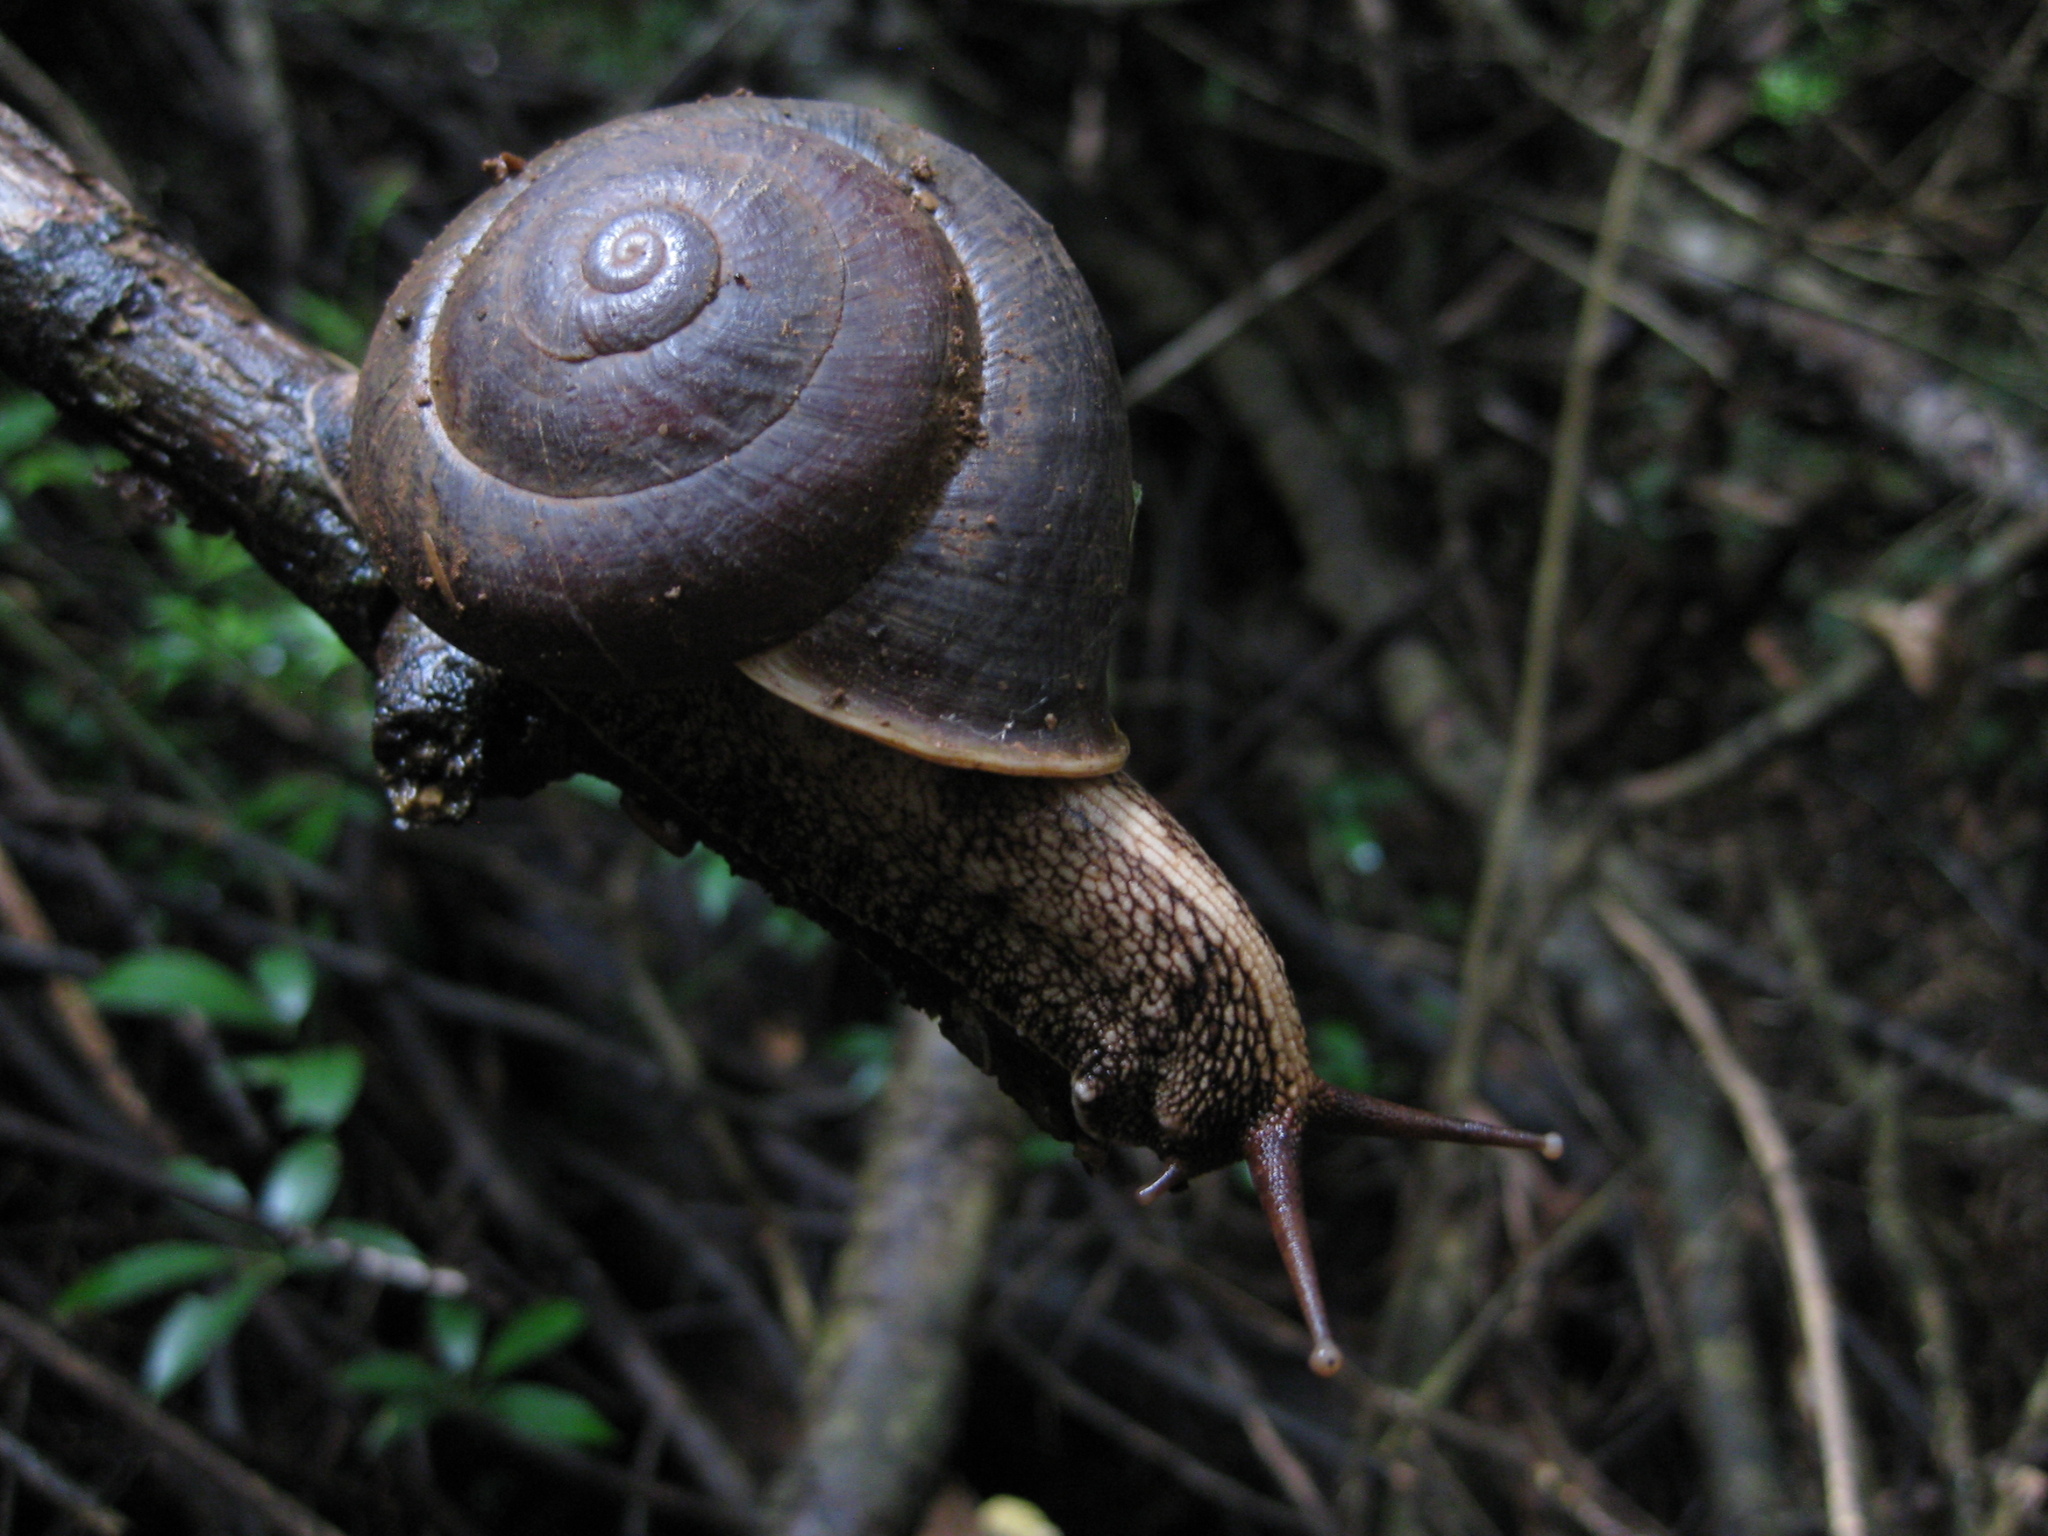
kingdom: Animalia
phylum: Mollusca
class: Gastropoda
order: Stylommatophora
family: Camaenidae
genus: Camaena
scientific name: Camaena menglunensis
